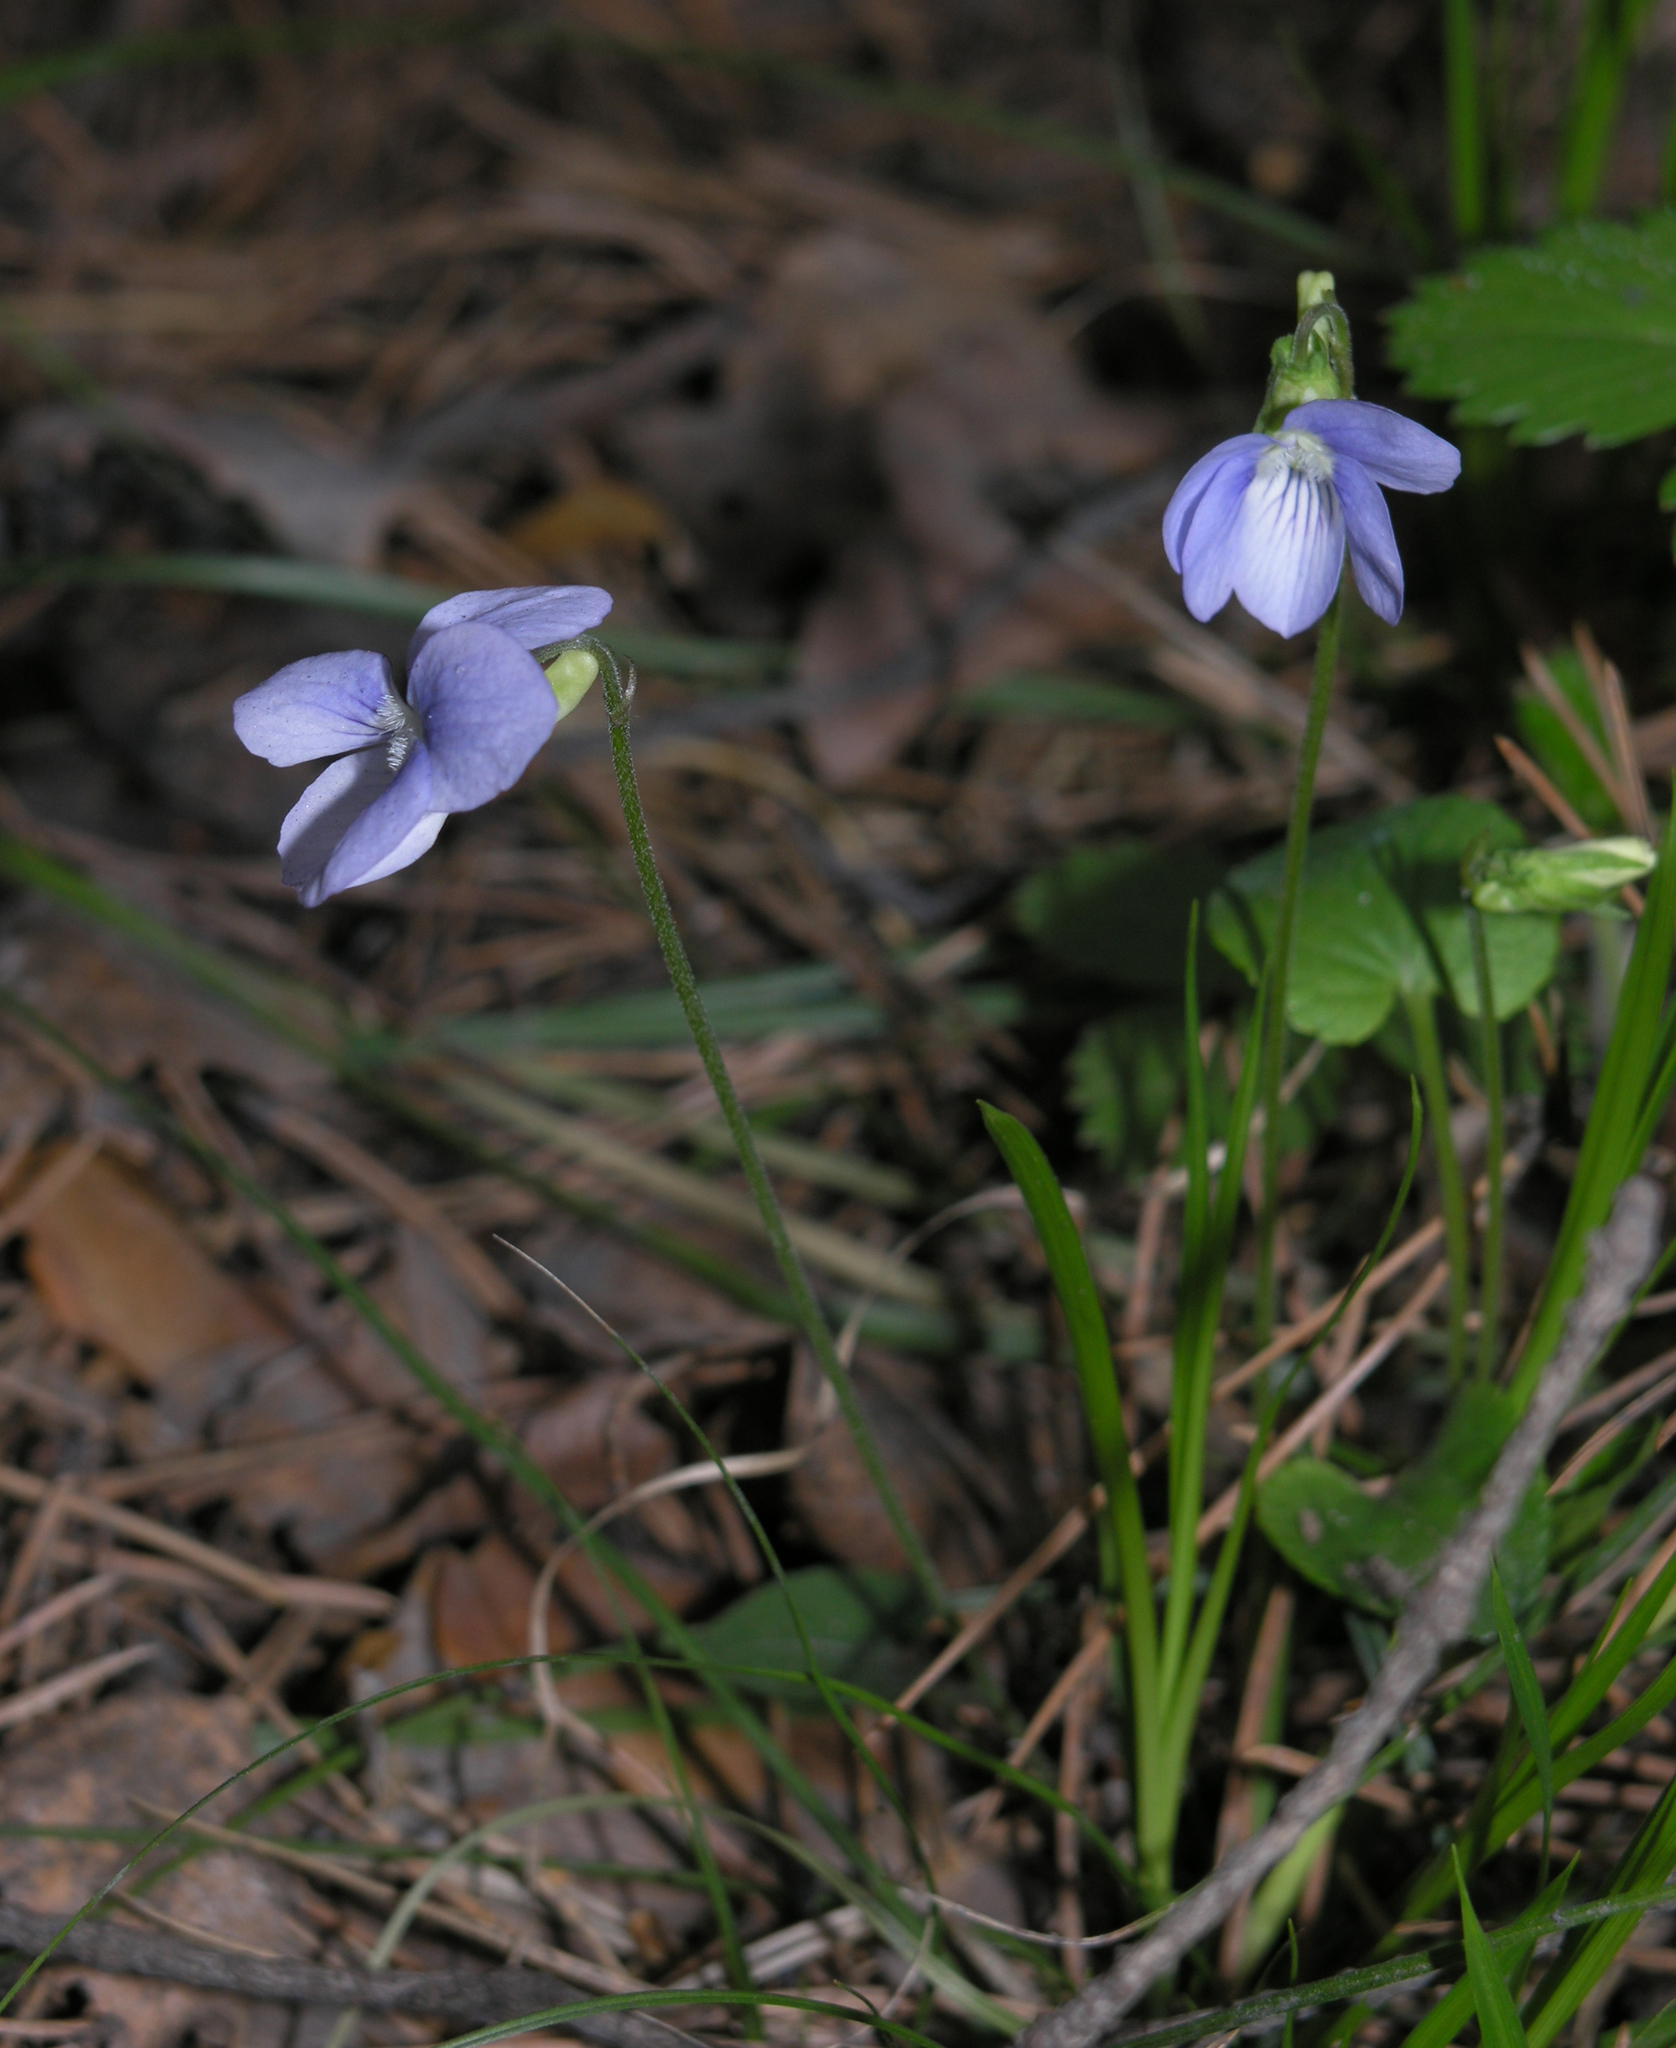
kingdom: Plantae
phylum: Tracheophyta
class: Magnoliopsida
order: Malpighiales
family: Violaceae
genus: Viola
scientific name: Viola rupestris
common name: Teesdale violet
